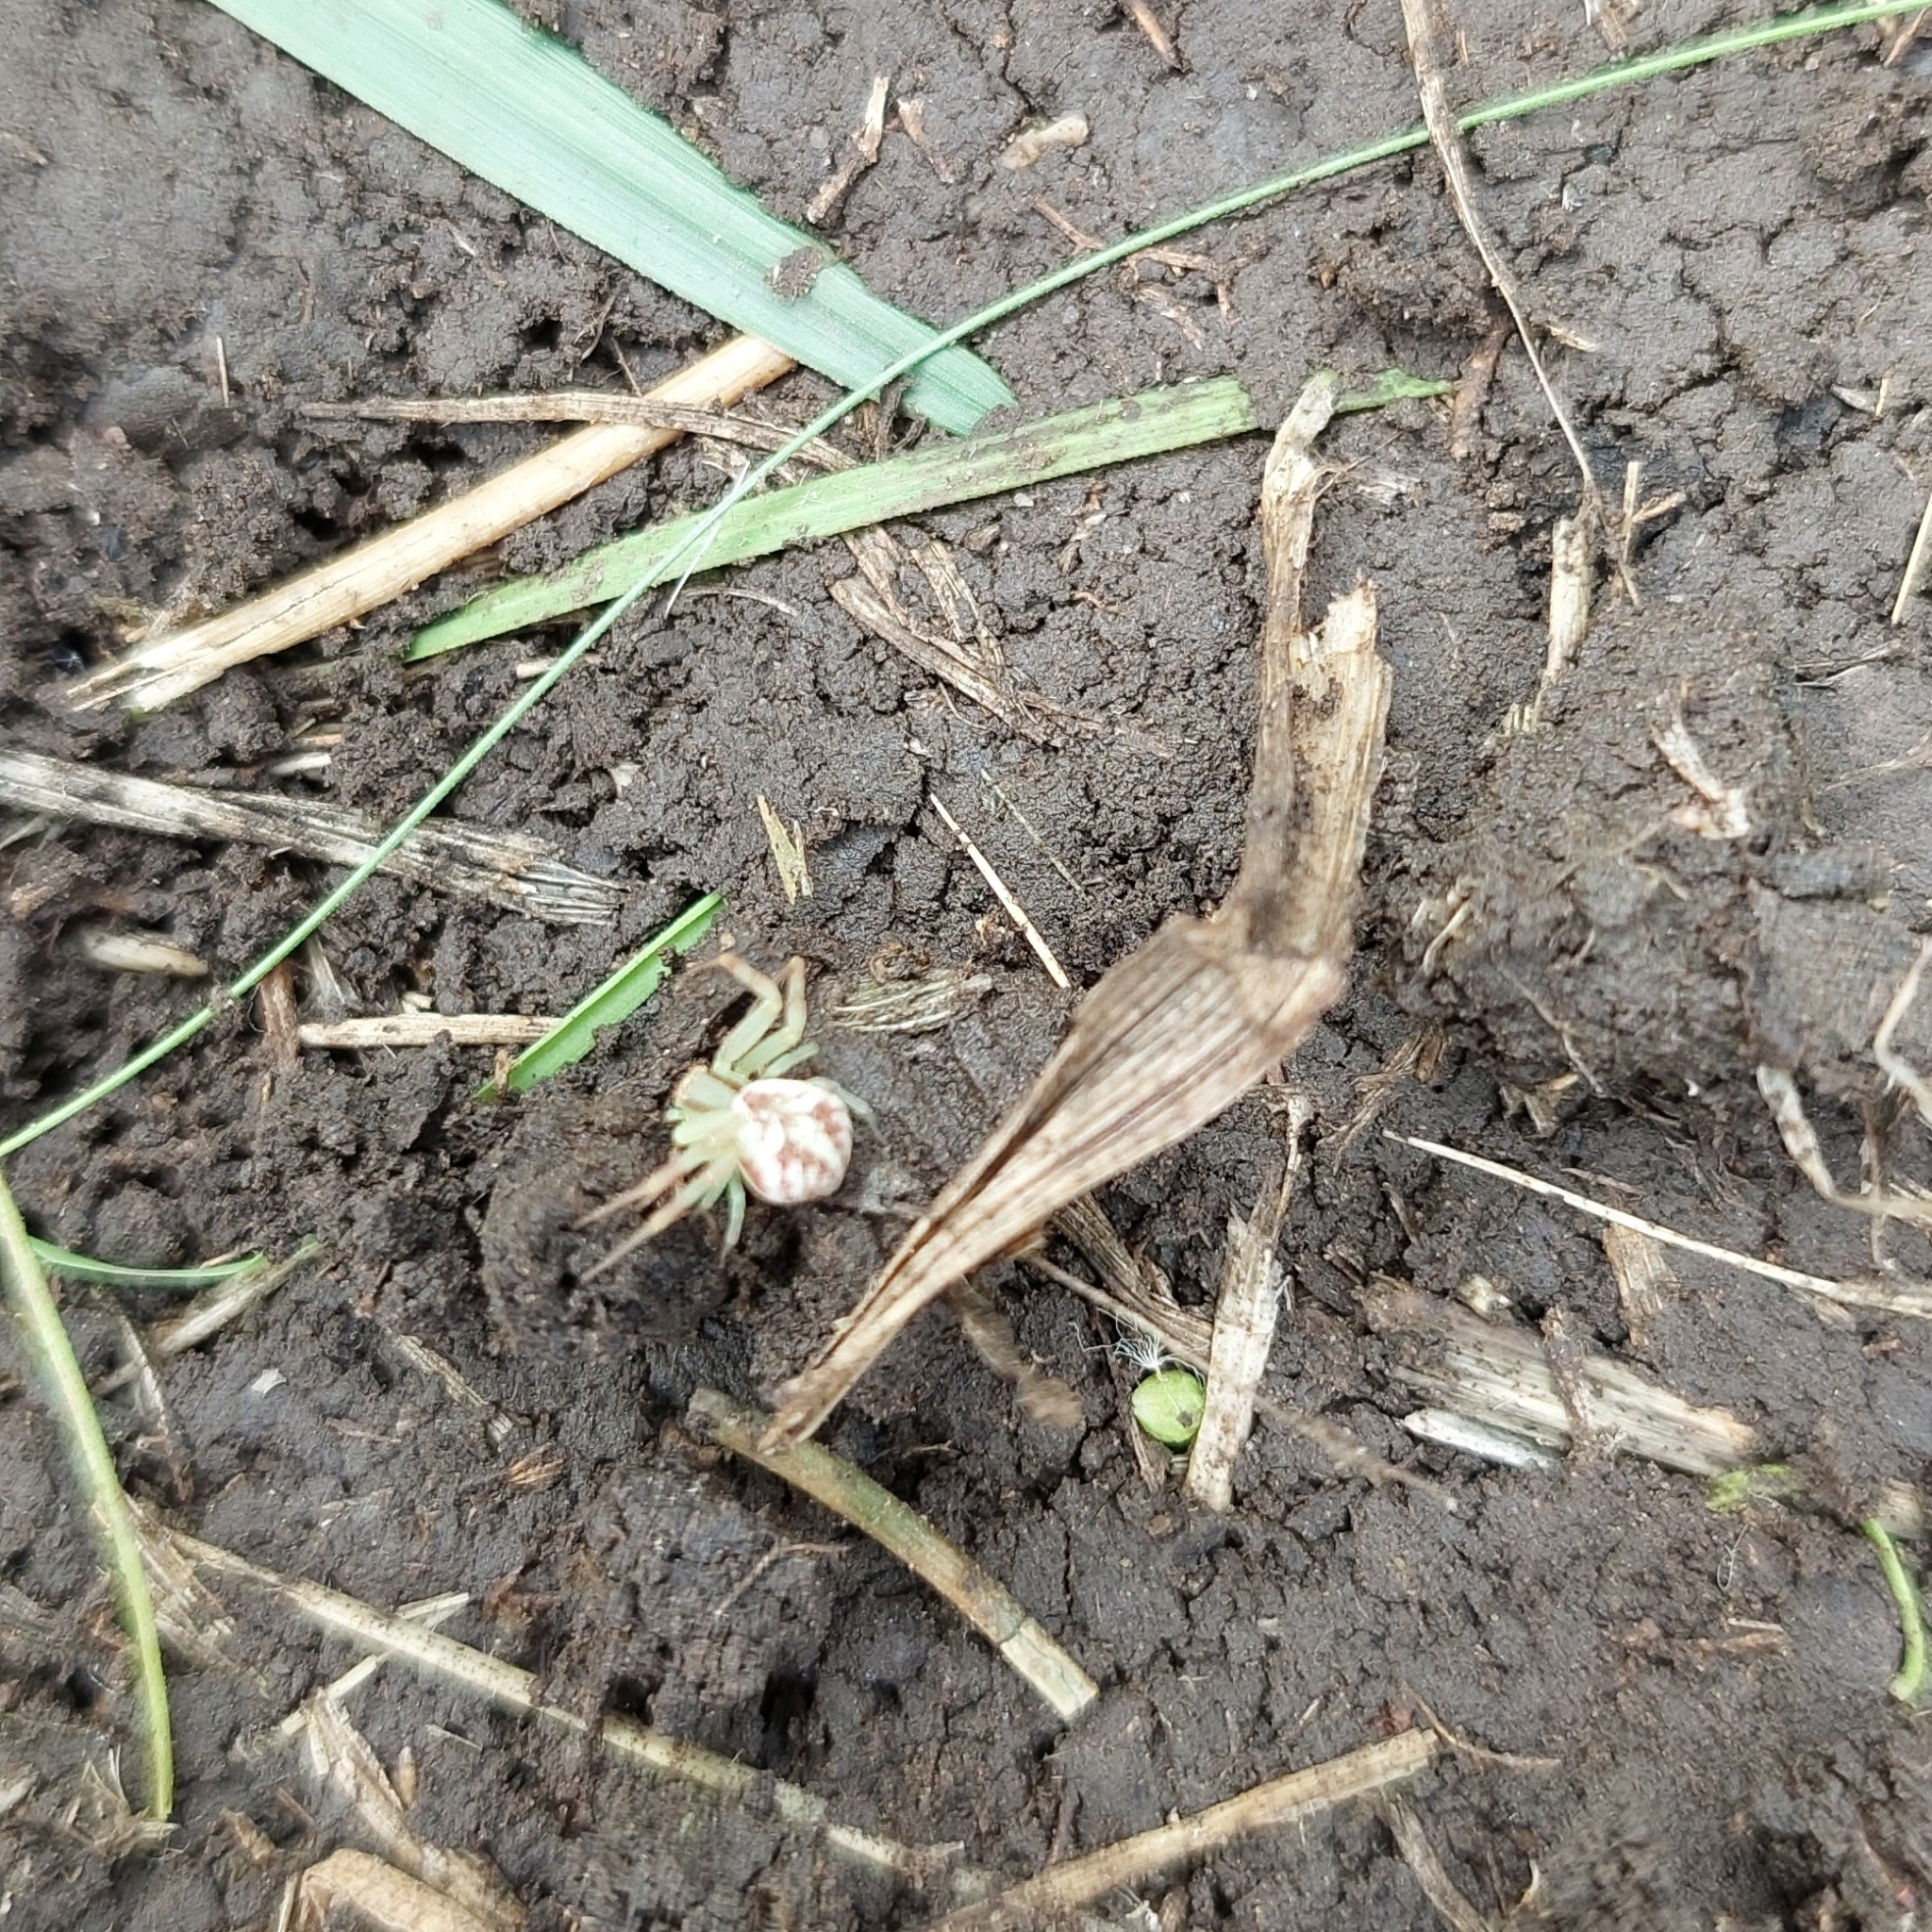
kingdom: Animalia
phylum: Arthropoda
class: Arachnida
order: Araneae
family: Thomisidae
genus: Misumenops
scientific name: Misumenops
